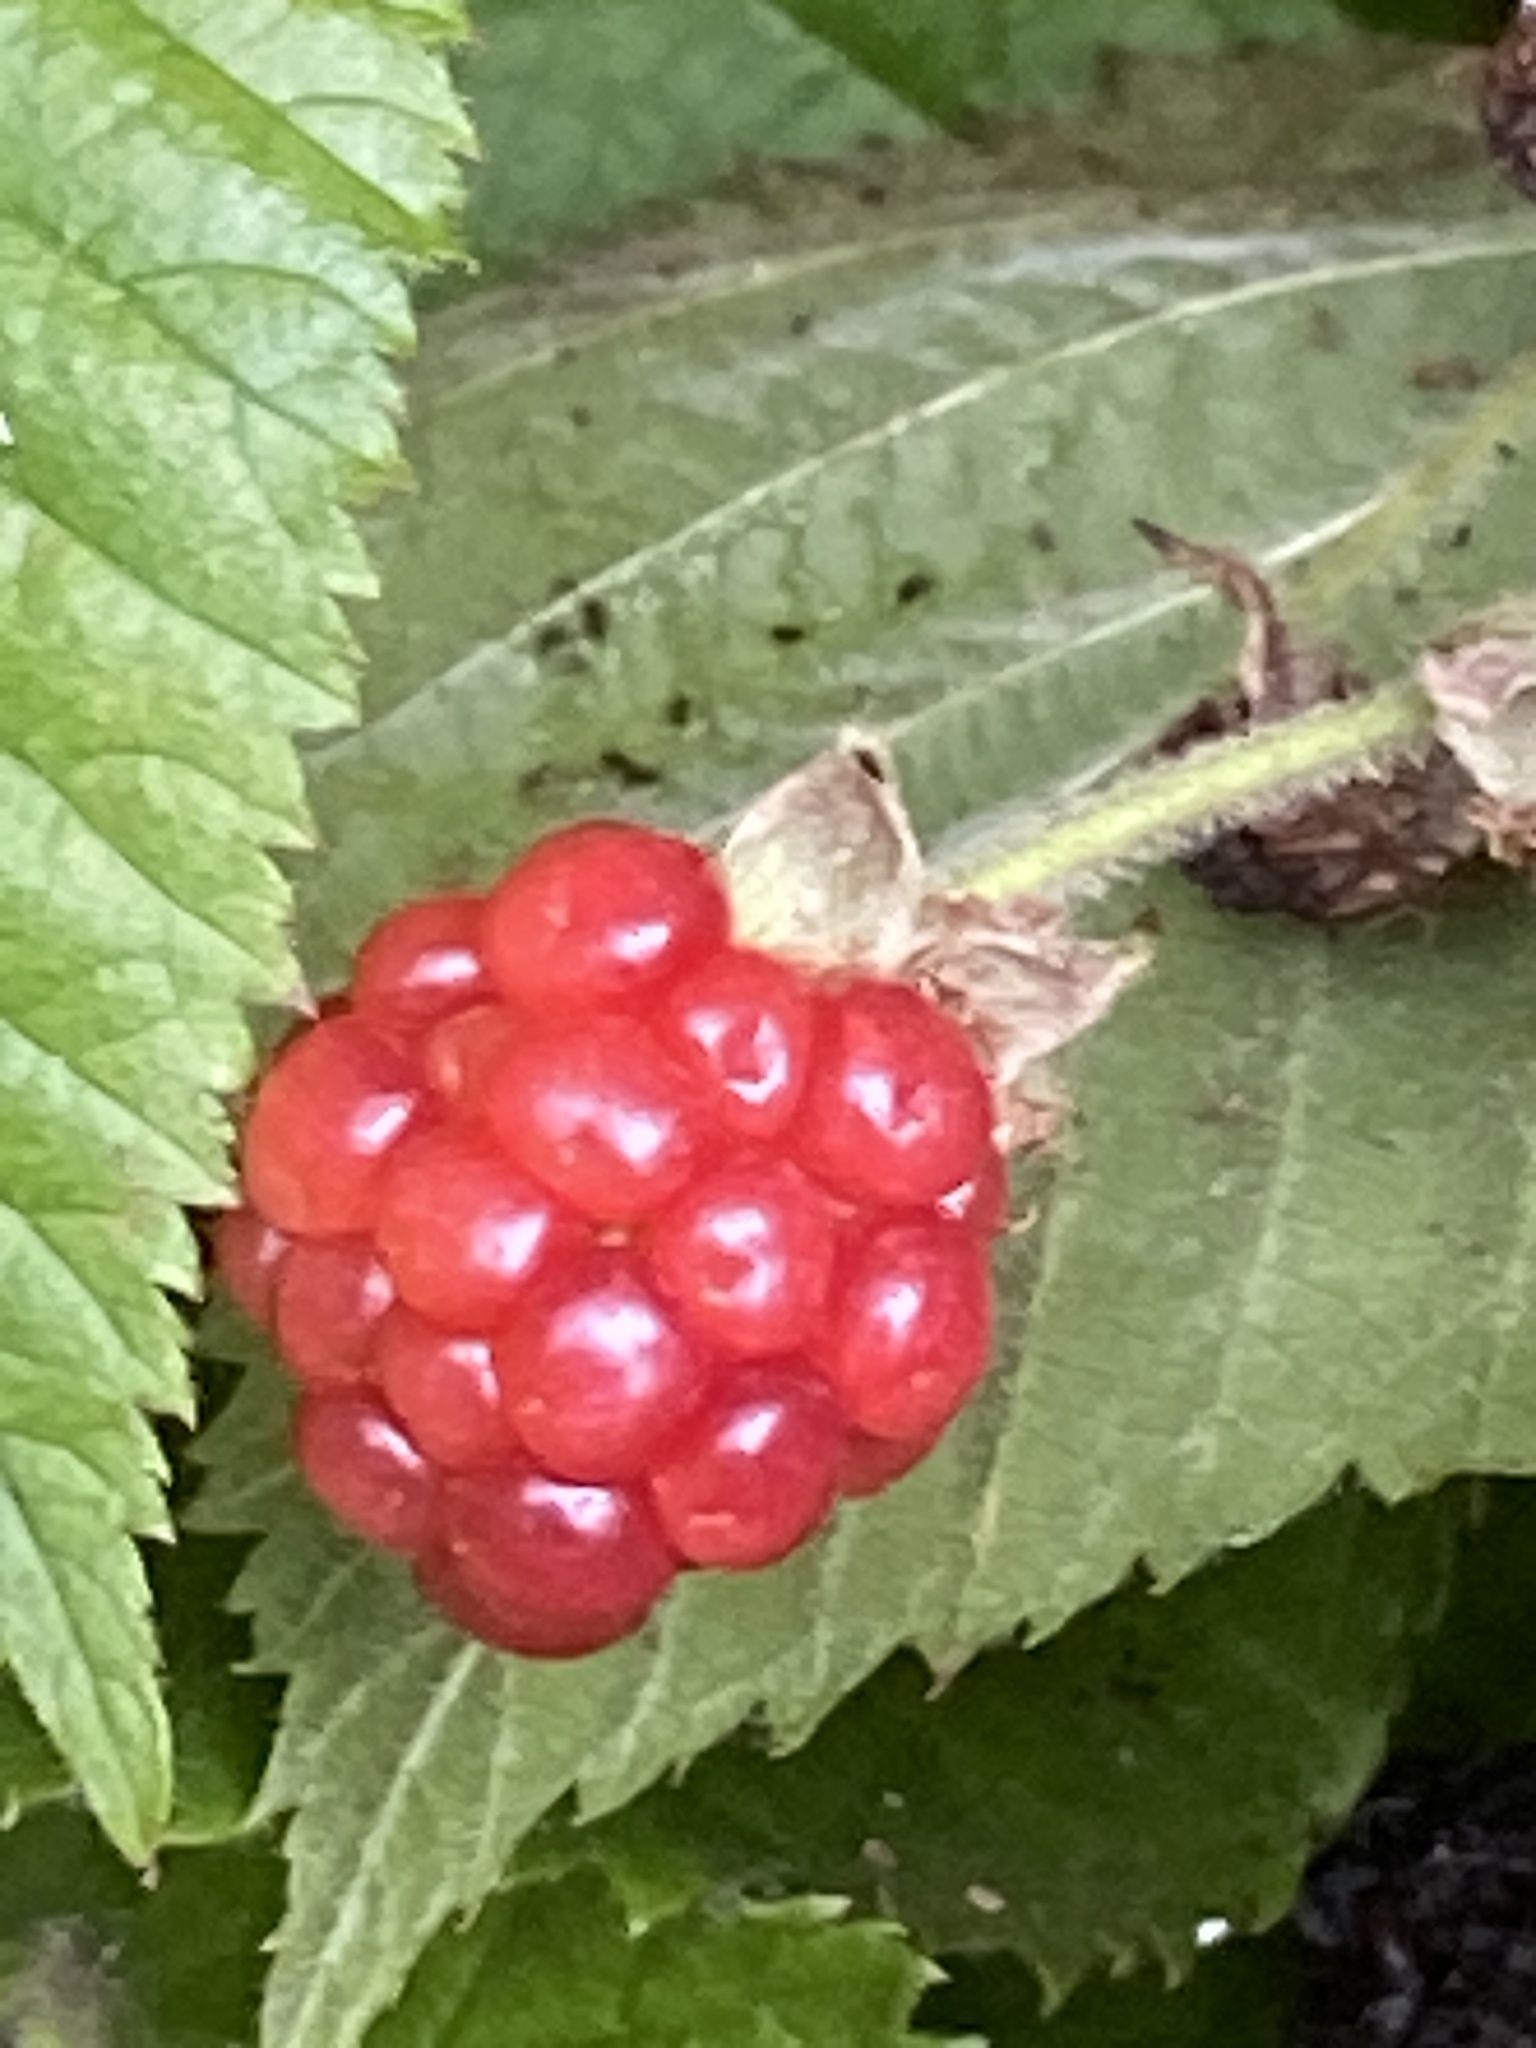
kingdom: Plantae
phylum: Tracheophyta
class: Magnoliopsida
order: Rosales
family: Rosaceae
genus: Rubus
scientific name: Rubus allegheniensis
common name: Allegheny blackberry
